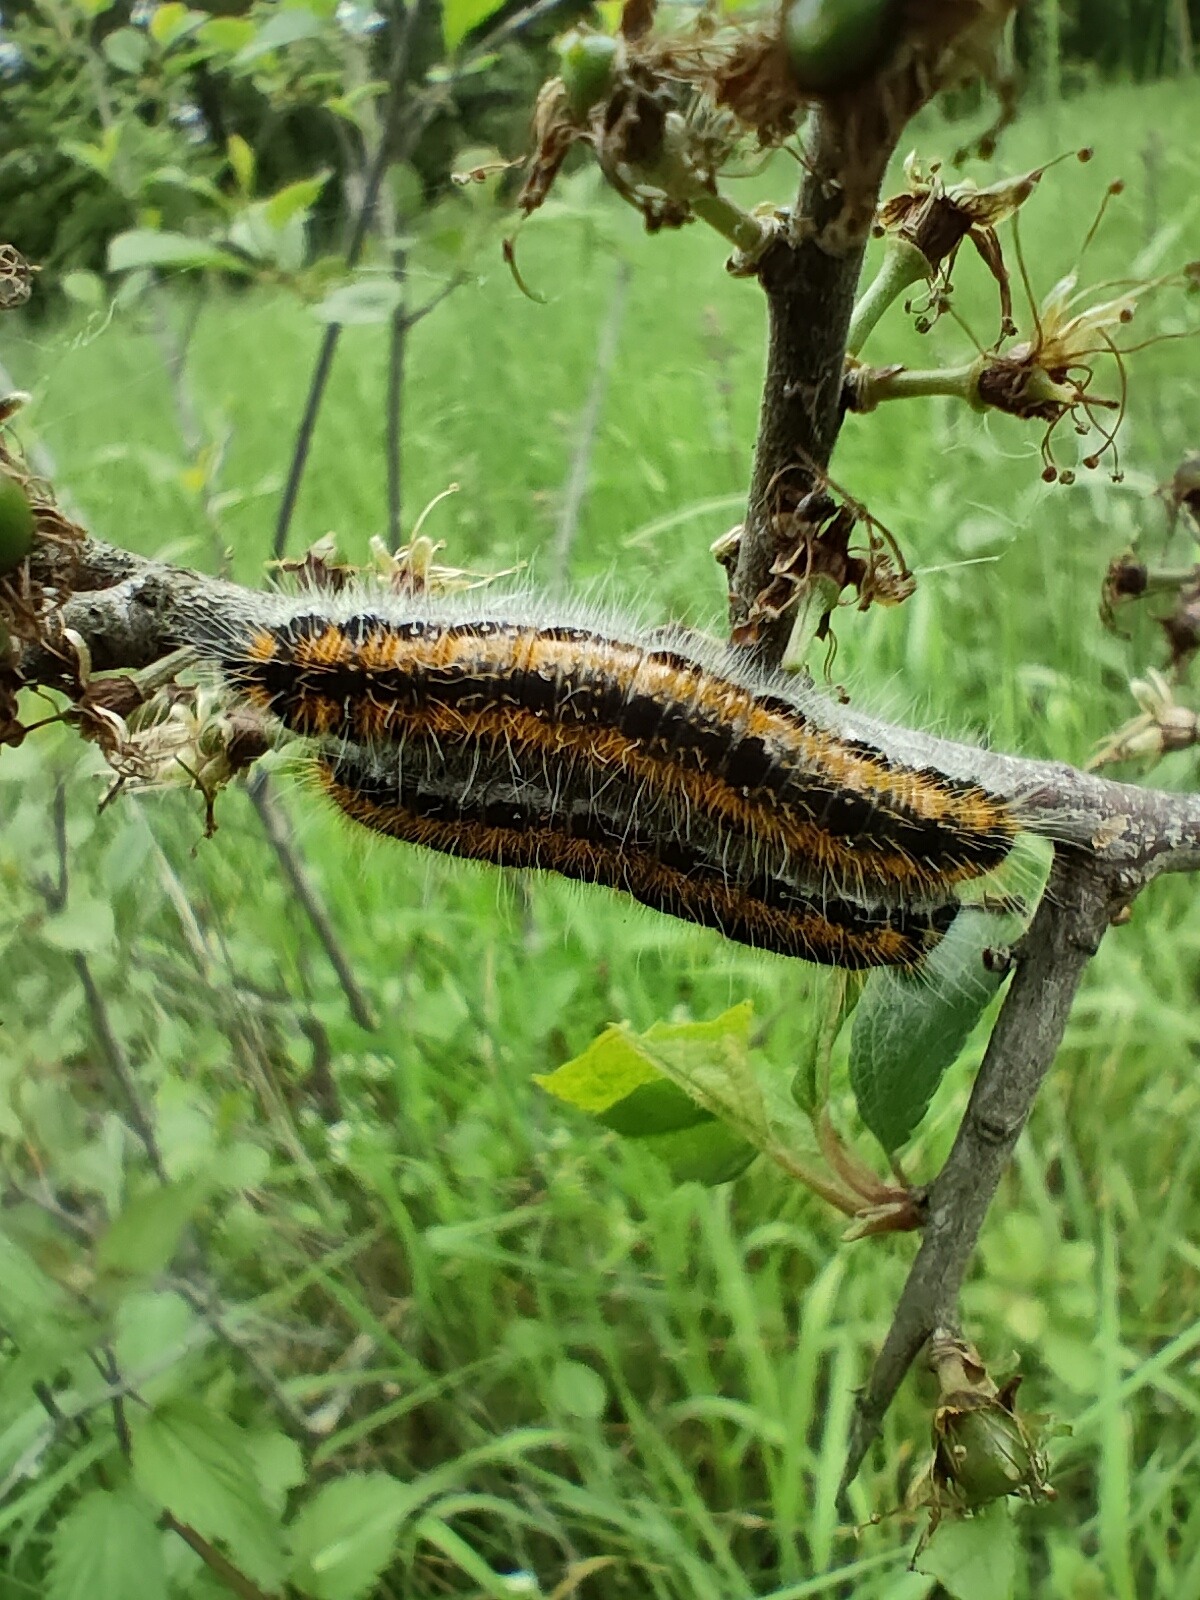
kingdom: Animalia
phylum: Arthropoda
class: Insecta
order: Lepidoptera
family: Pieridae
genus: Aporia
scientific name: Aporia crataegi
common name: Black-veined white
